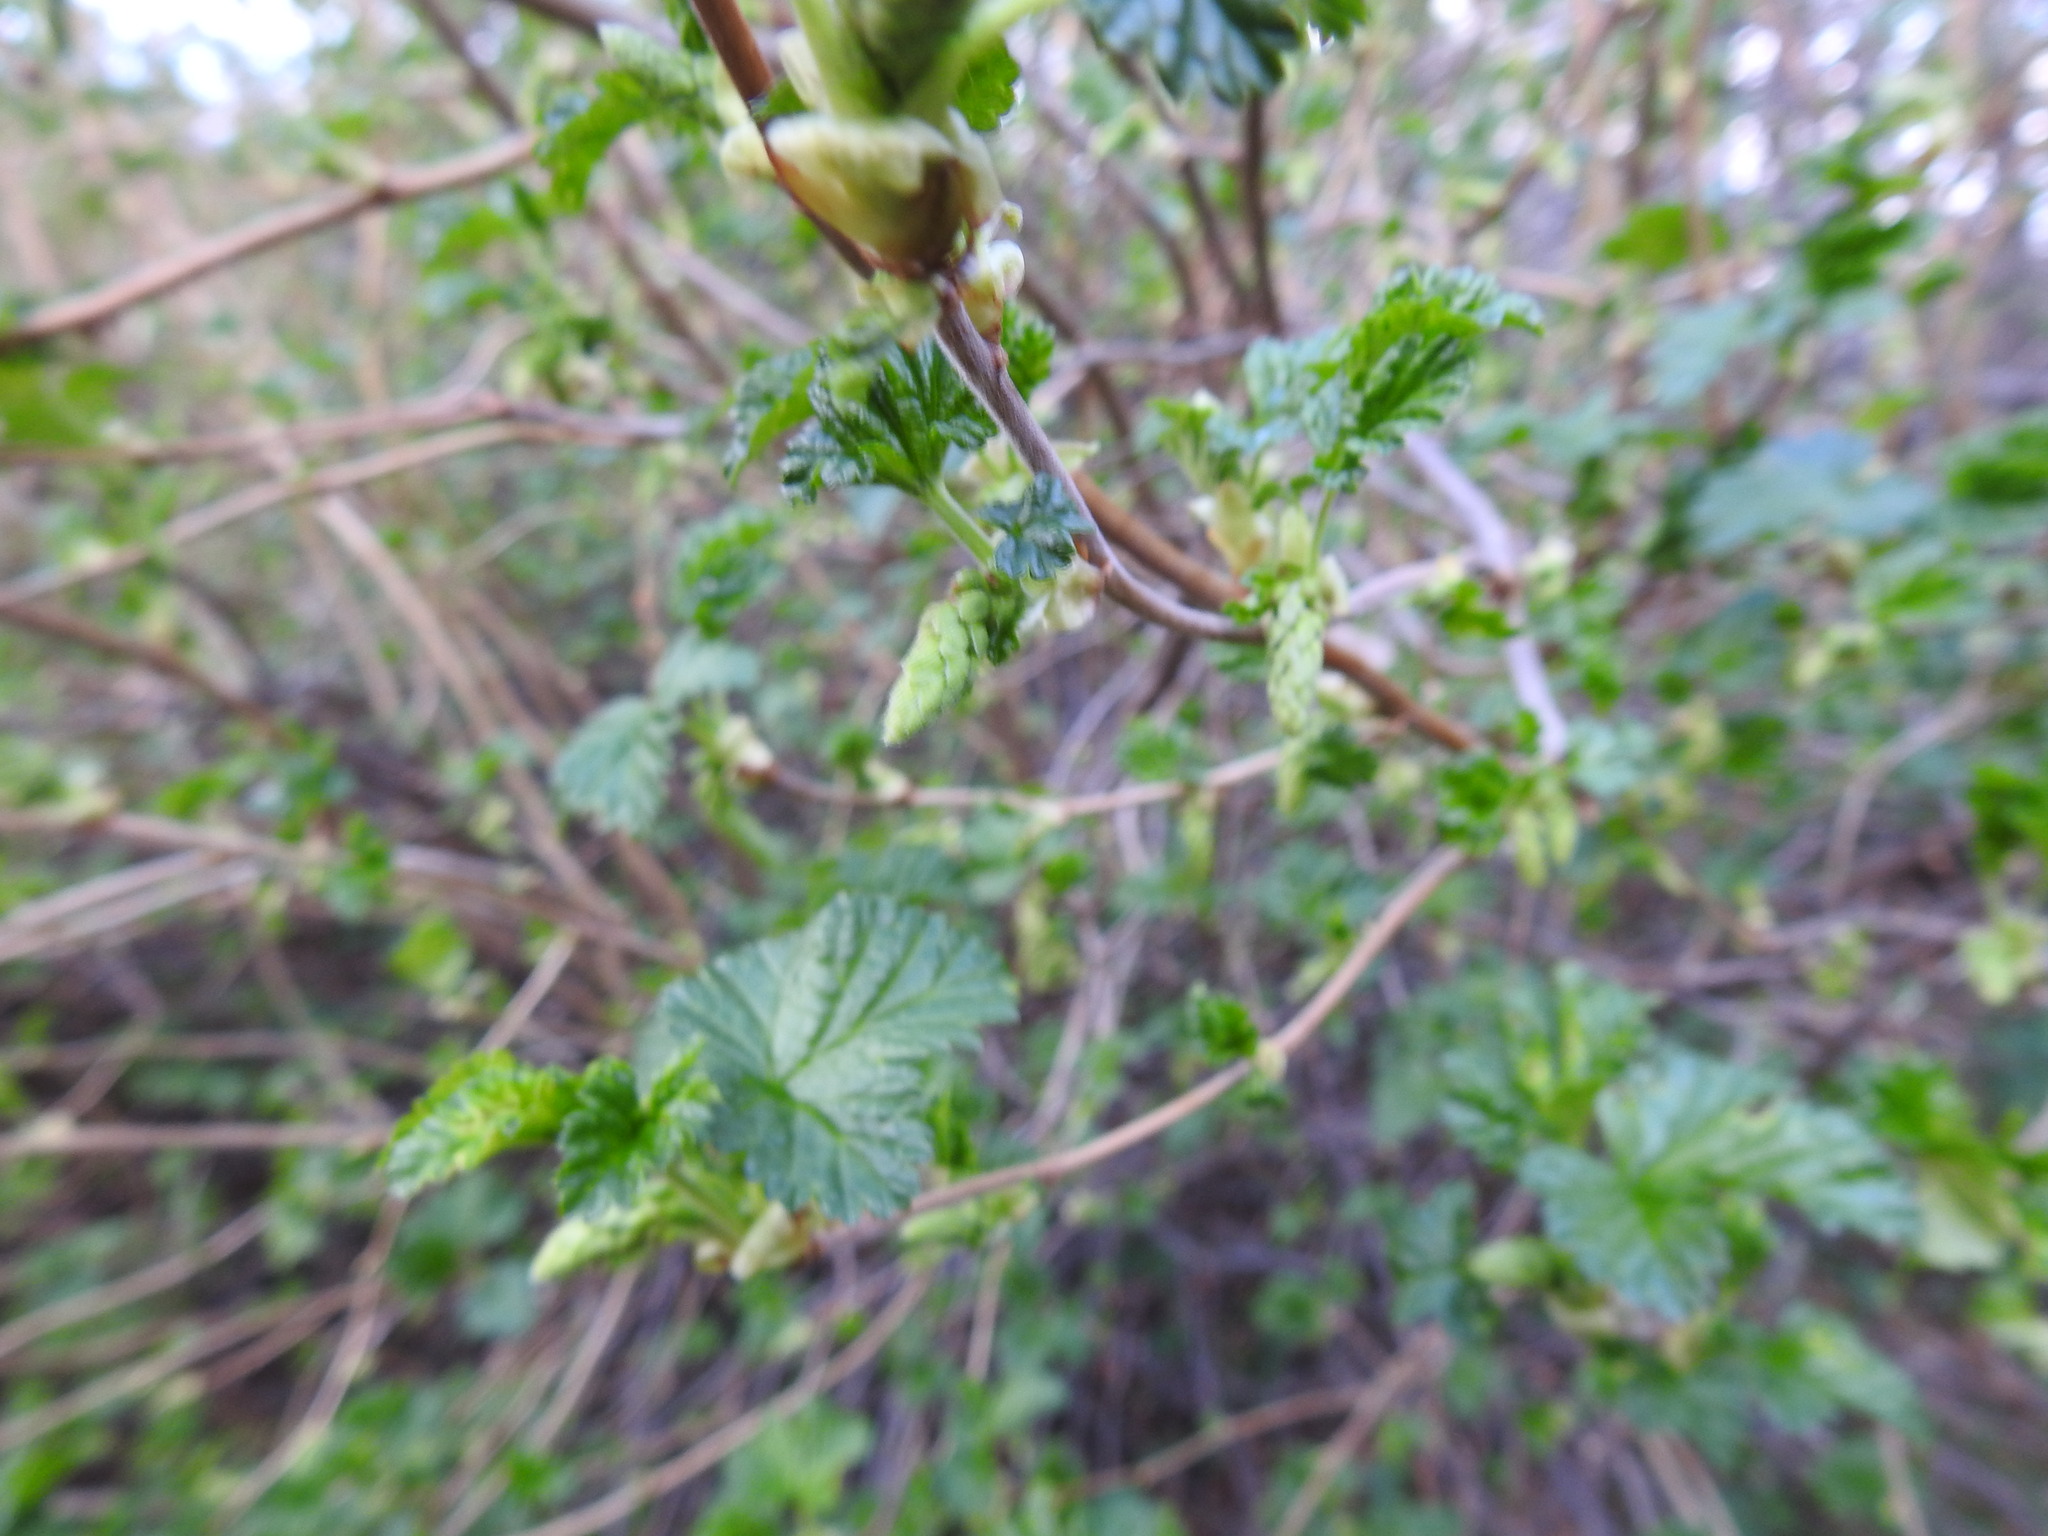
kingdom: Plantae
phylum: Tracheophyta
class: Magnoliopsida
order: Saxifragales
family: Grossulariaceae
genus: Ribes
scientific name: Ribes magellanicum
